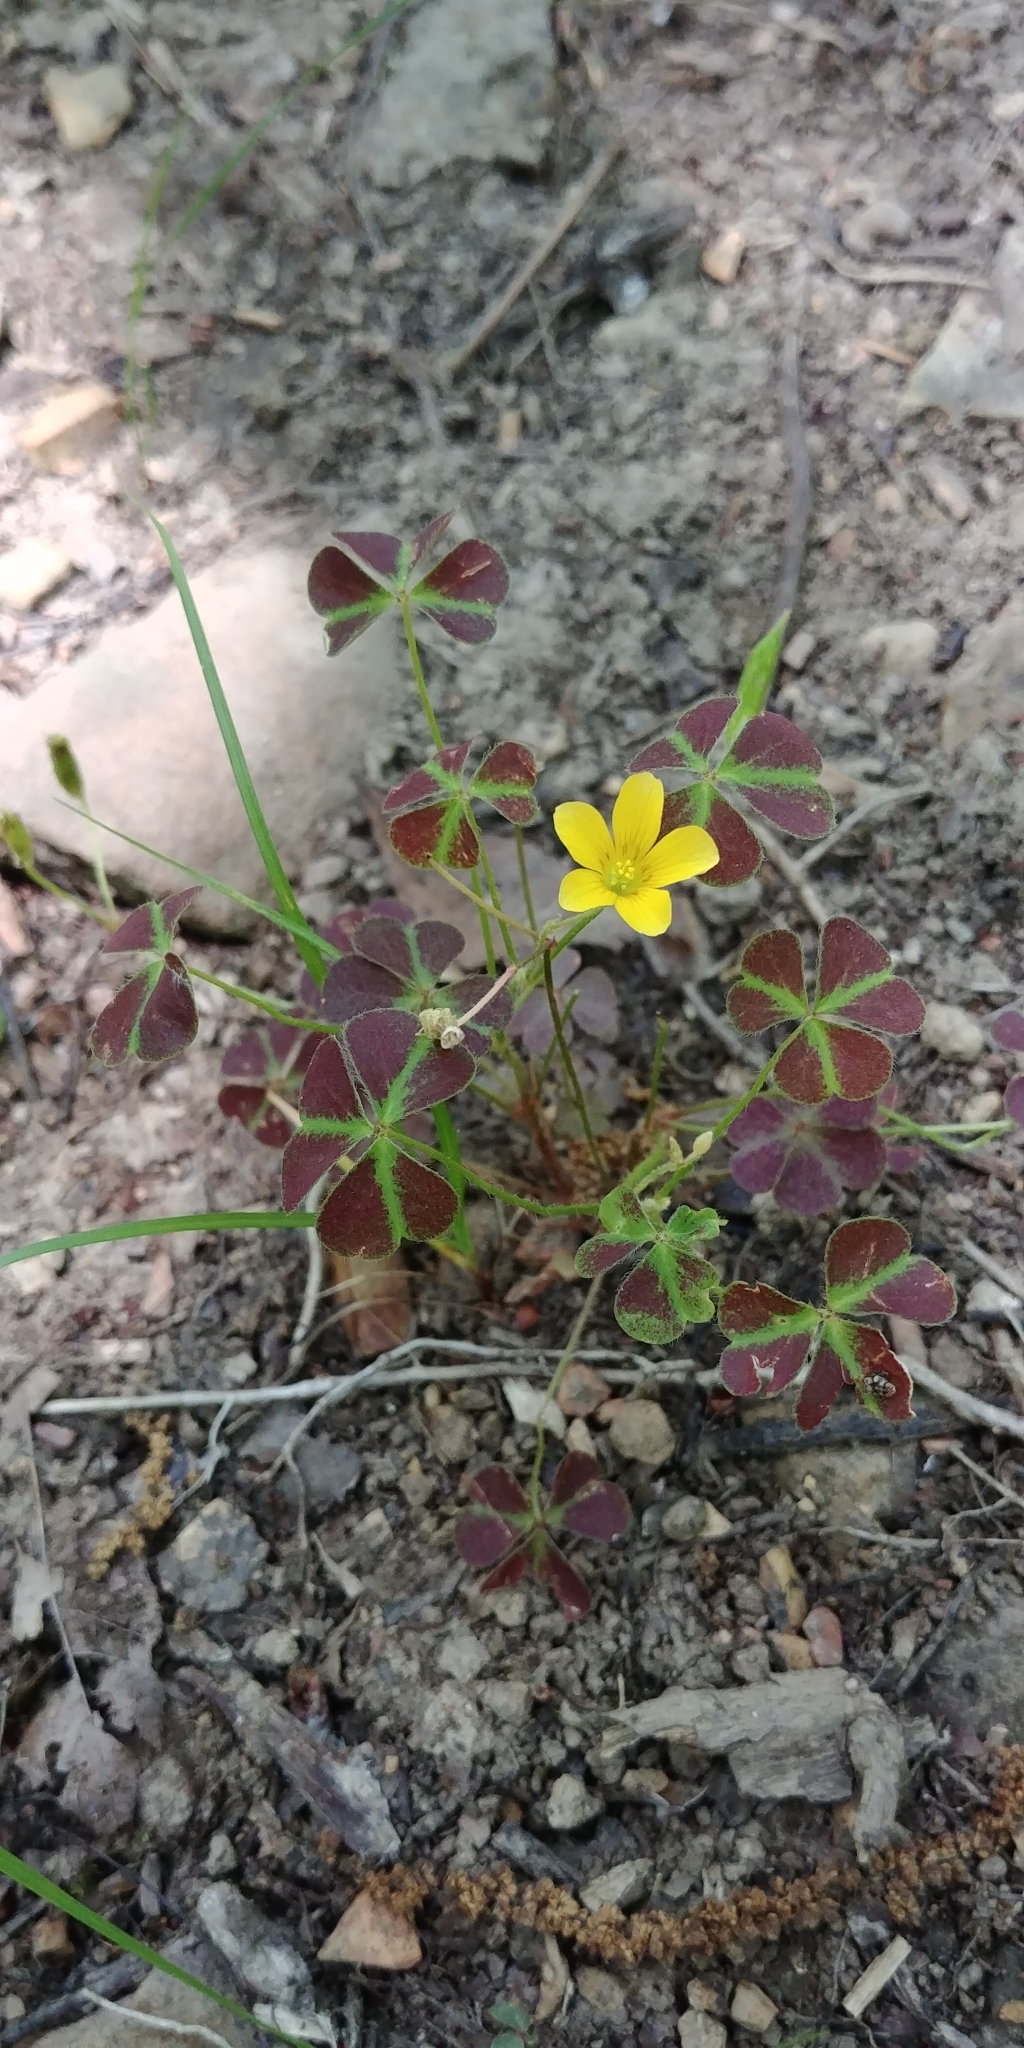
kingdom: Plantae
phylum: Tracheophyta
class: Magnoliopsida
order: Oxalidales
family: Oxalidaceae
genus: Oxalis
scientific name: Oxalis colorea
